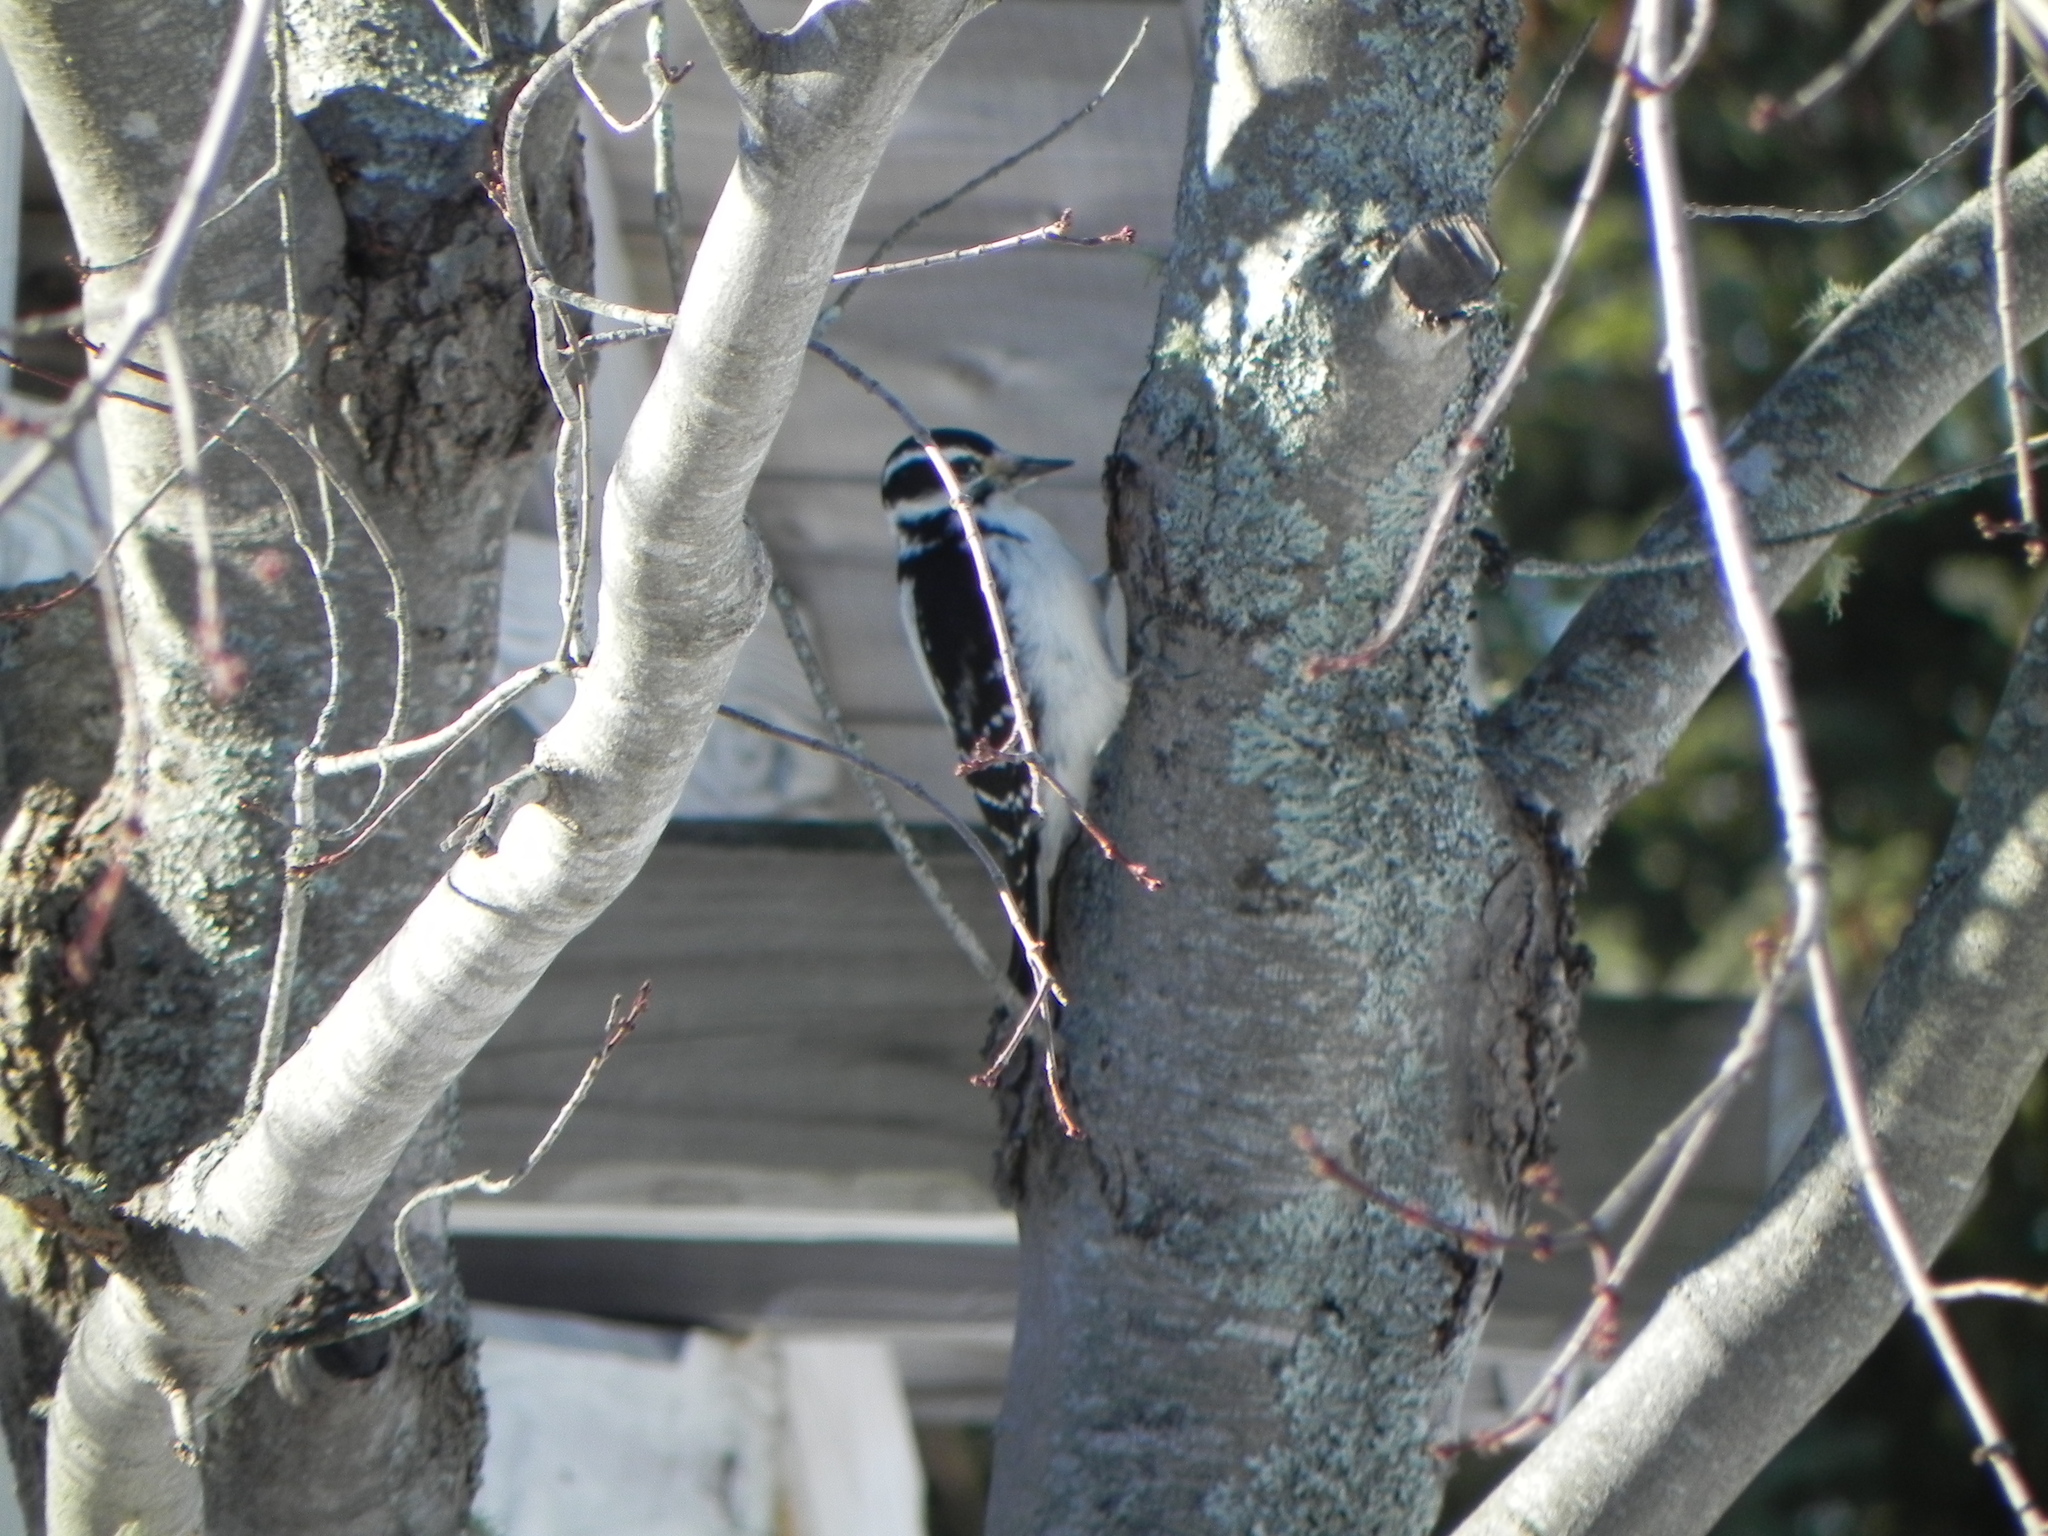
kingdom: Animalia
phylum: Chordata
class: Aves
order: Piciformes
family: Picidae
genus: Leuconotopicus
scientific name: Leuconotopicus villosus
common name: Hairy woodpecker
